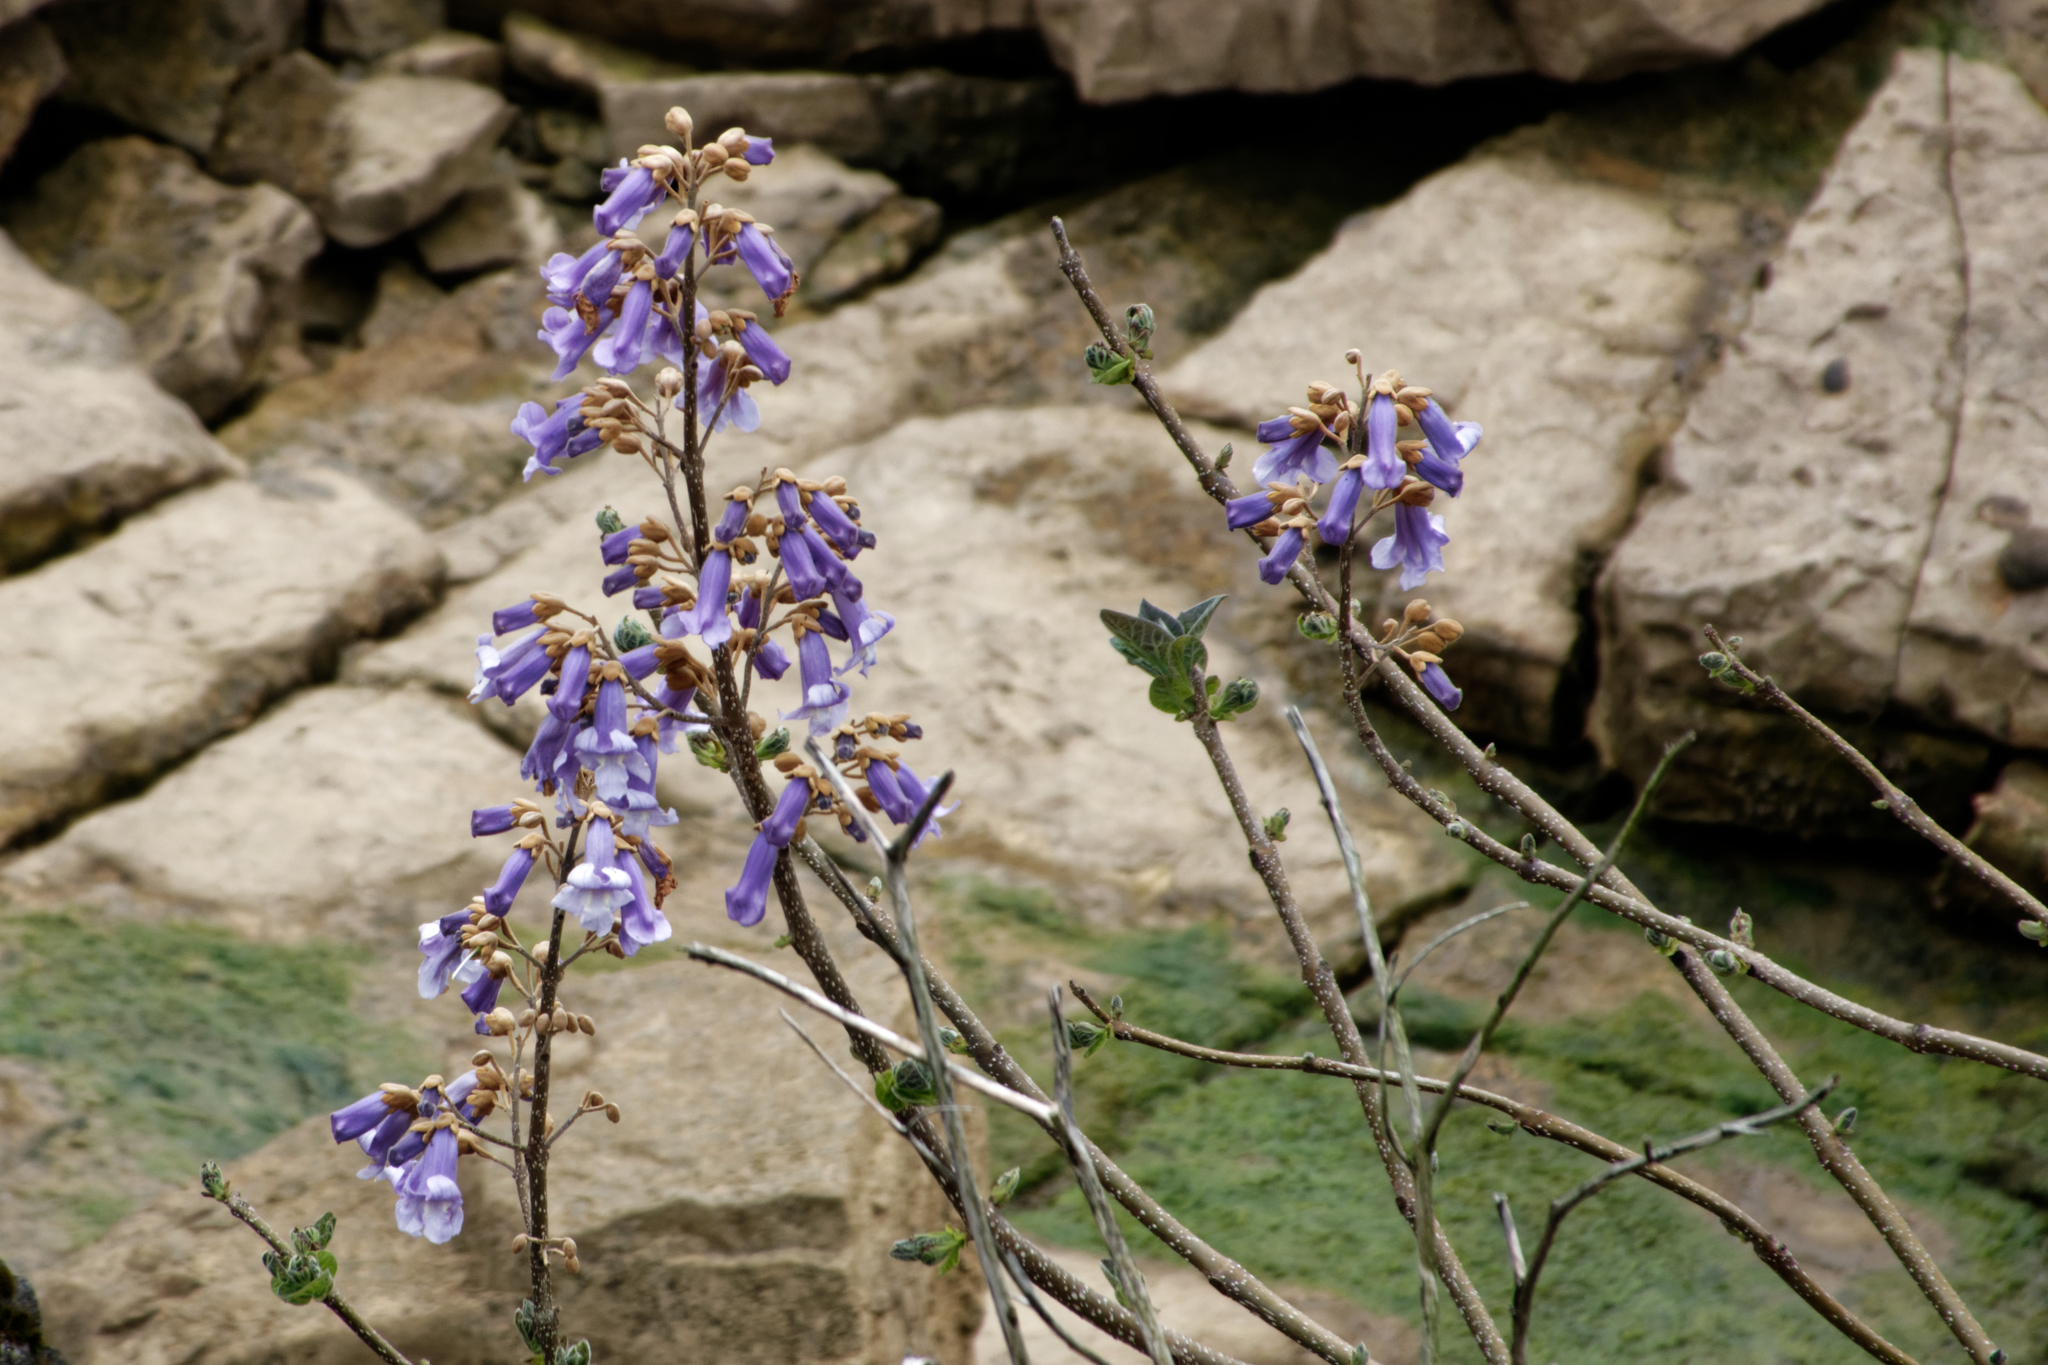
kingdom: Plantae
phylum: Tracheophyta
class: Magnoliopsida
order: Lamiales
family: Paulowniaceae
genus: Paulownia
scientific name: Paulownia tomentosa
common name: Foxglove-tree
